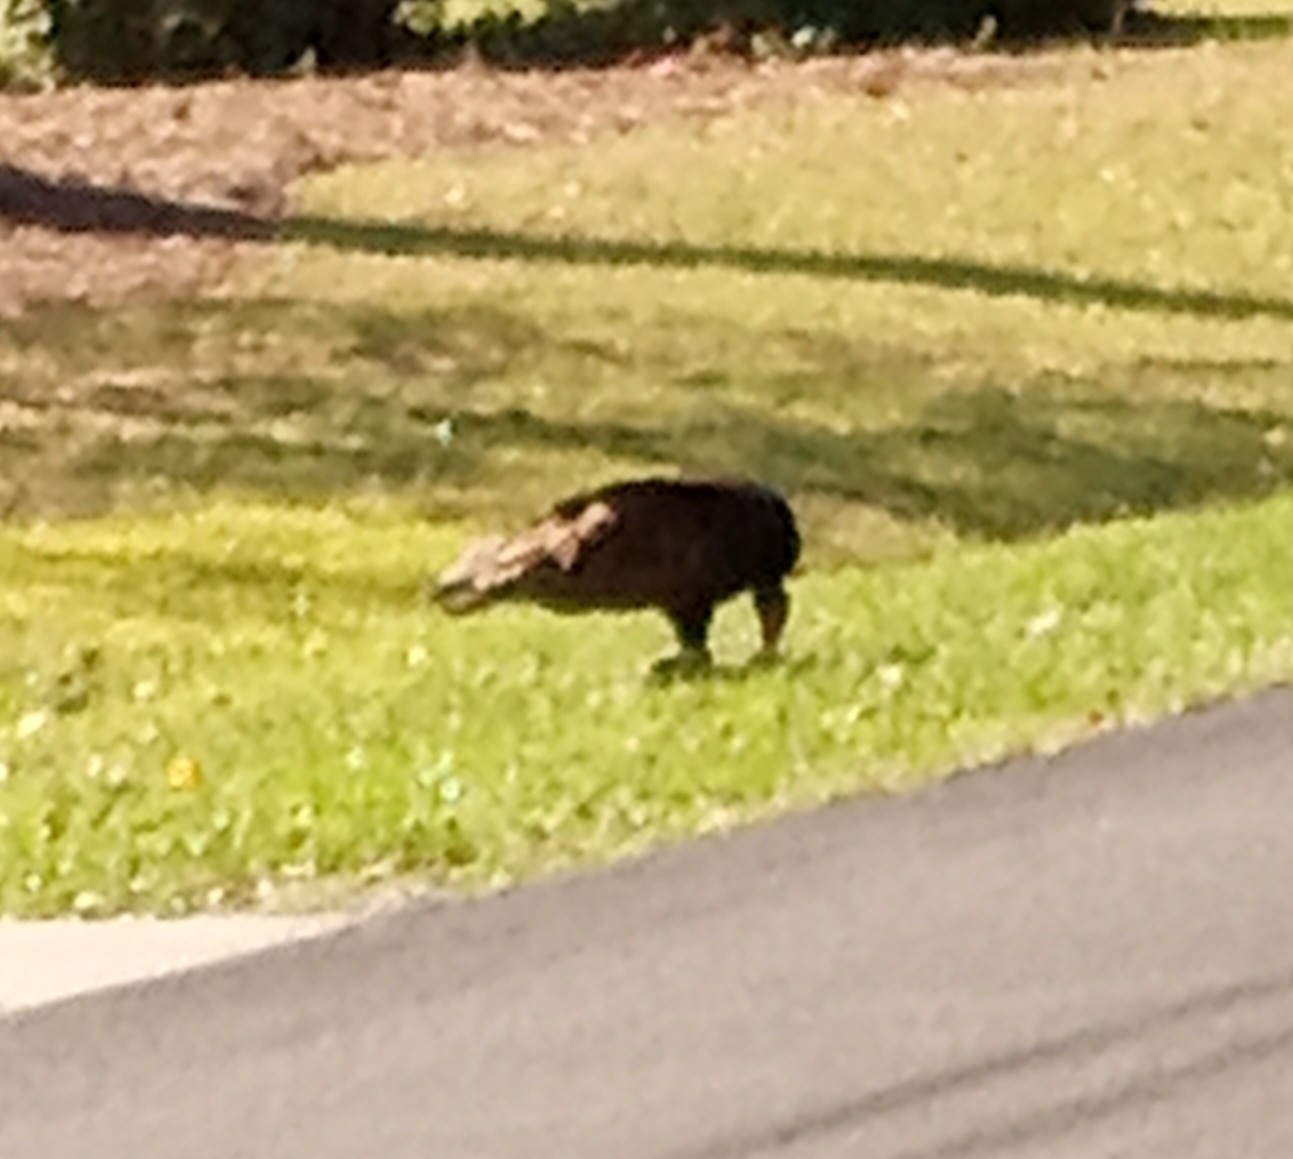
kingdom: Animalia
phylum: Chordata
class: Aves
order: Accipitriformes
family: Cathartidae
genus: Cathartes
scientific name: Cathartes aura
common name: Turkey vulture
